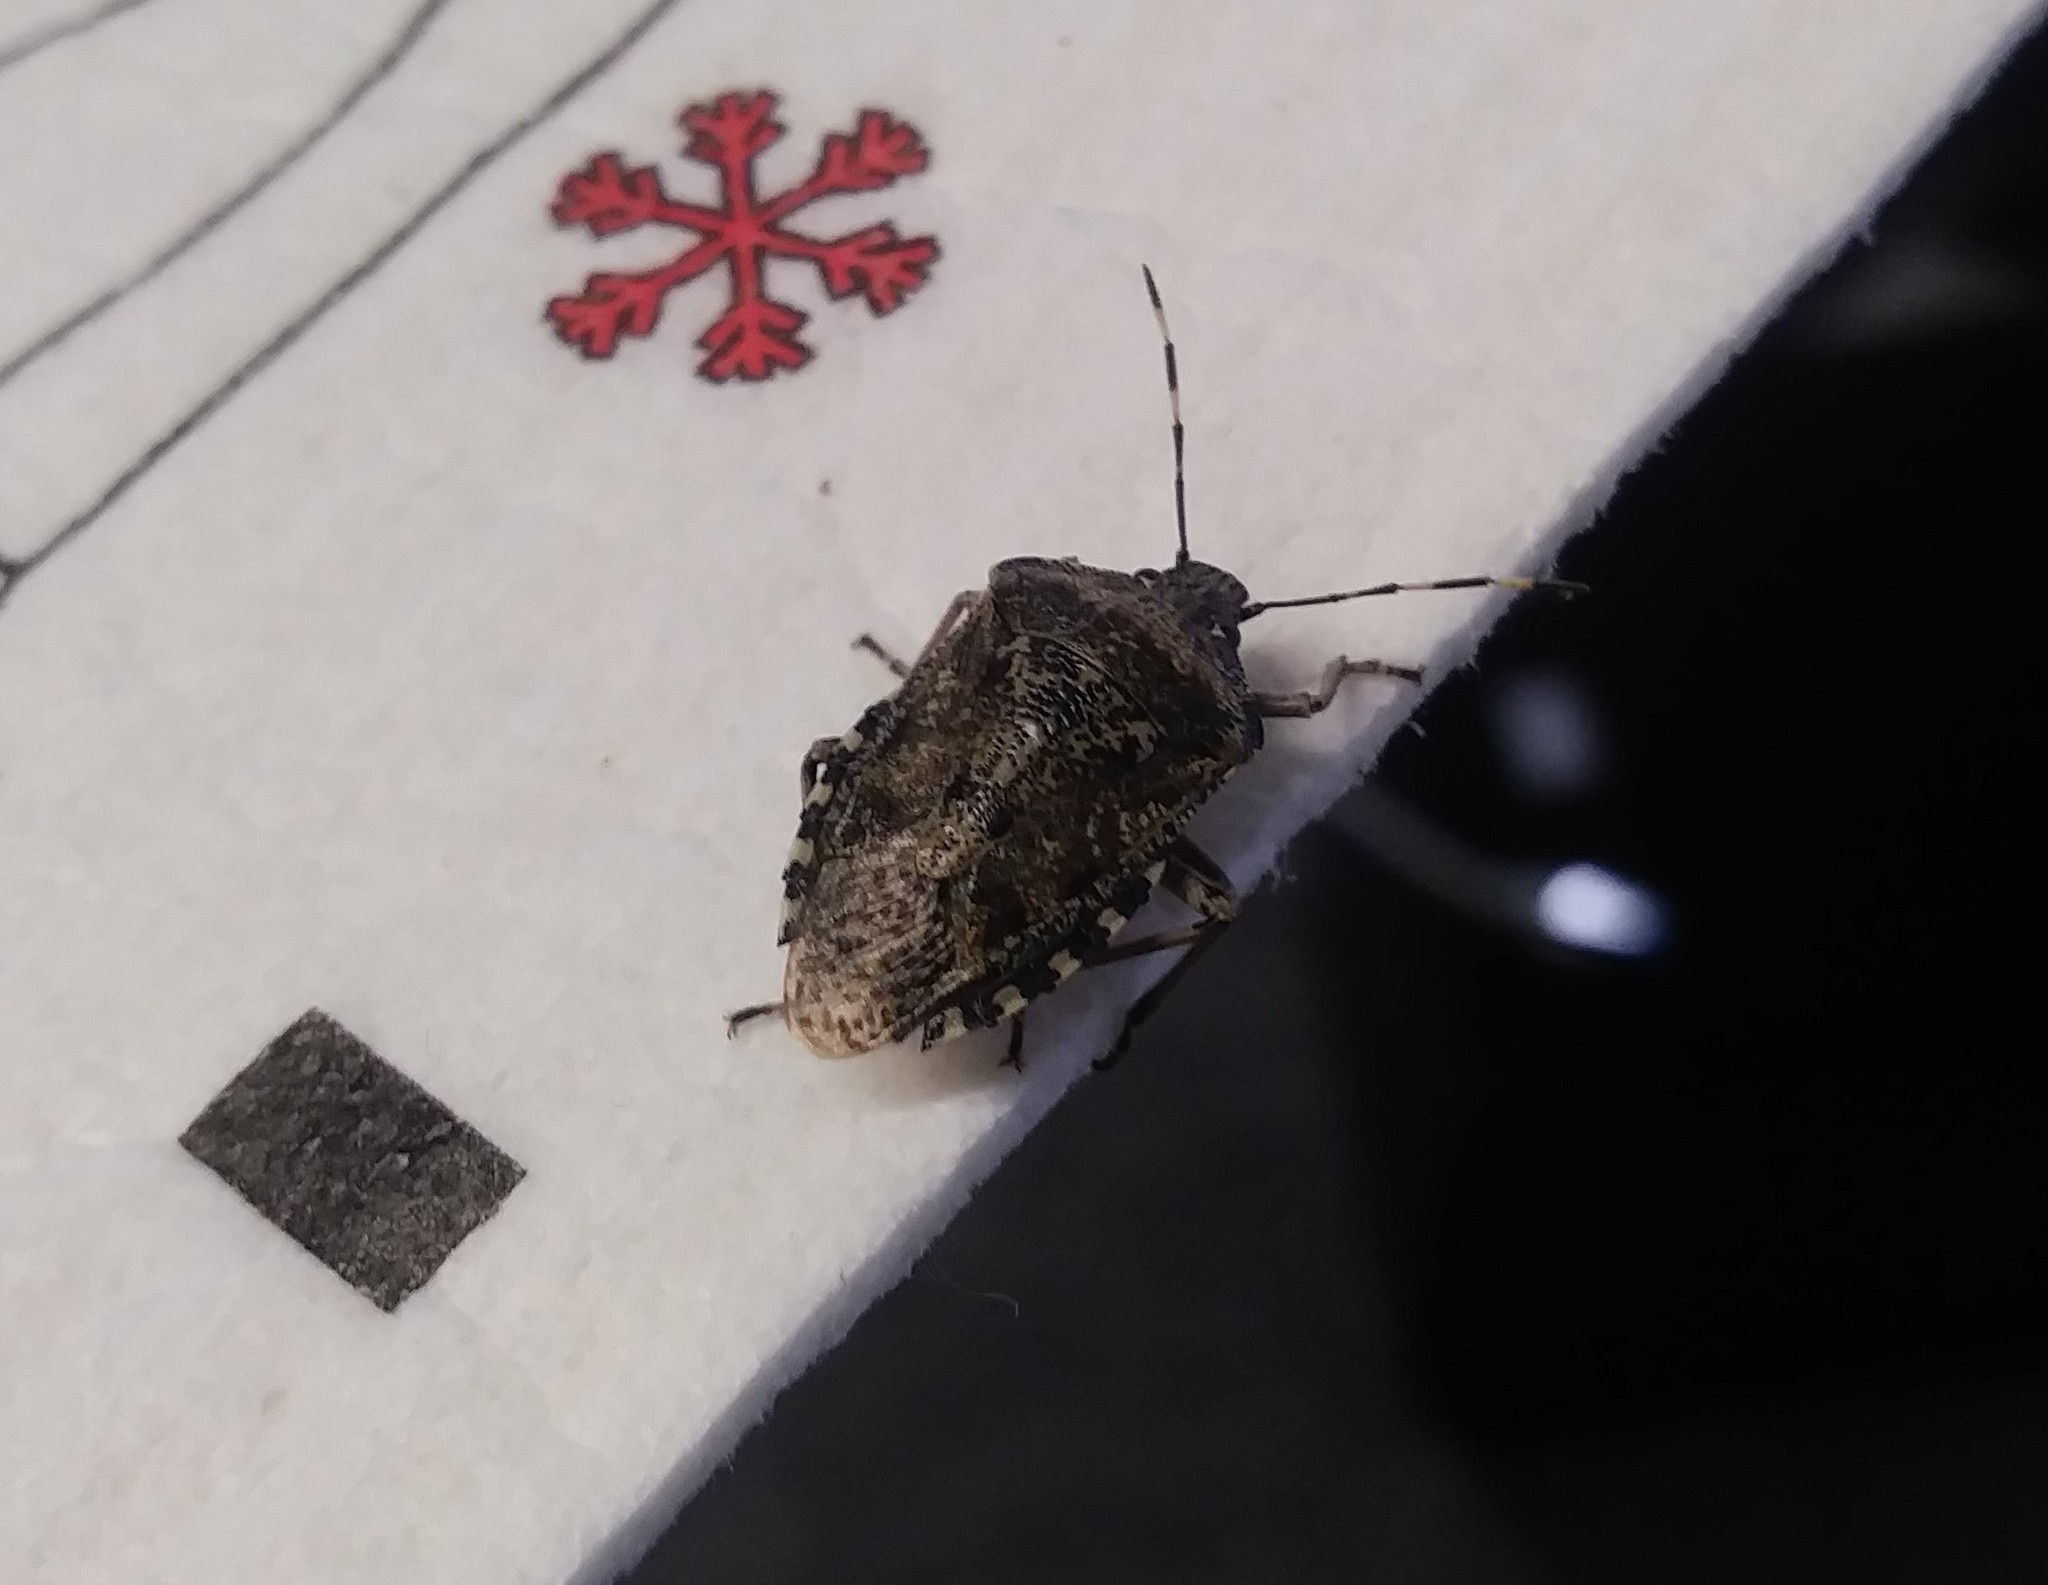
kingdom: Animalia
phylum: Arthropoda
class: Insecta
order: Hemiptera
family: Pentatomidae
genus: Rhaphigaster
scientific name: Rhaphigaster nebulosa
